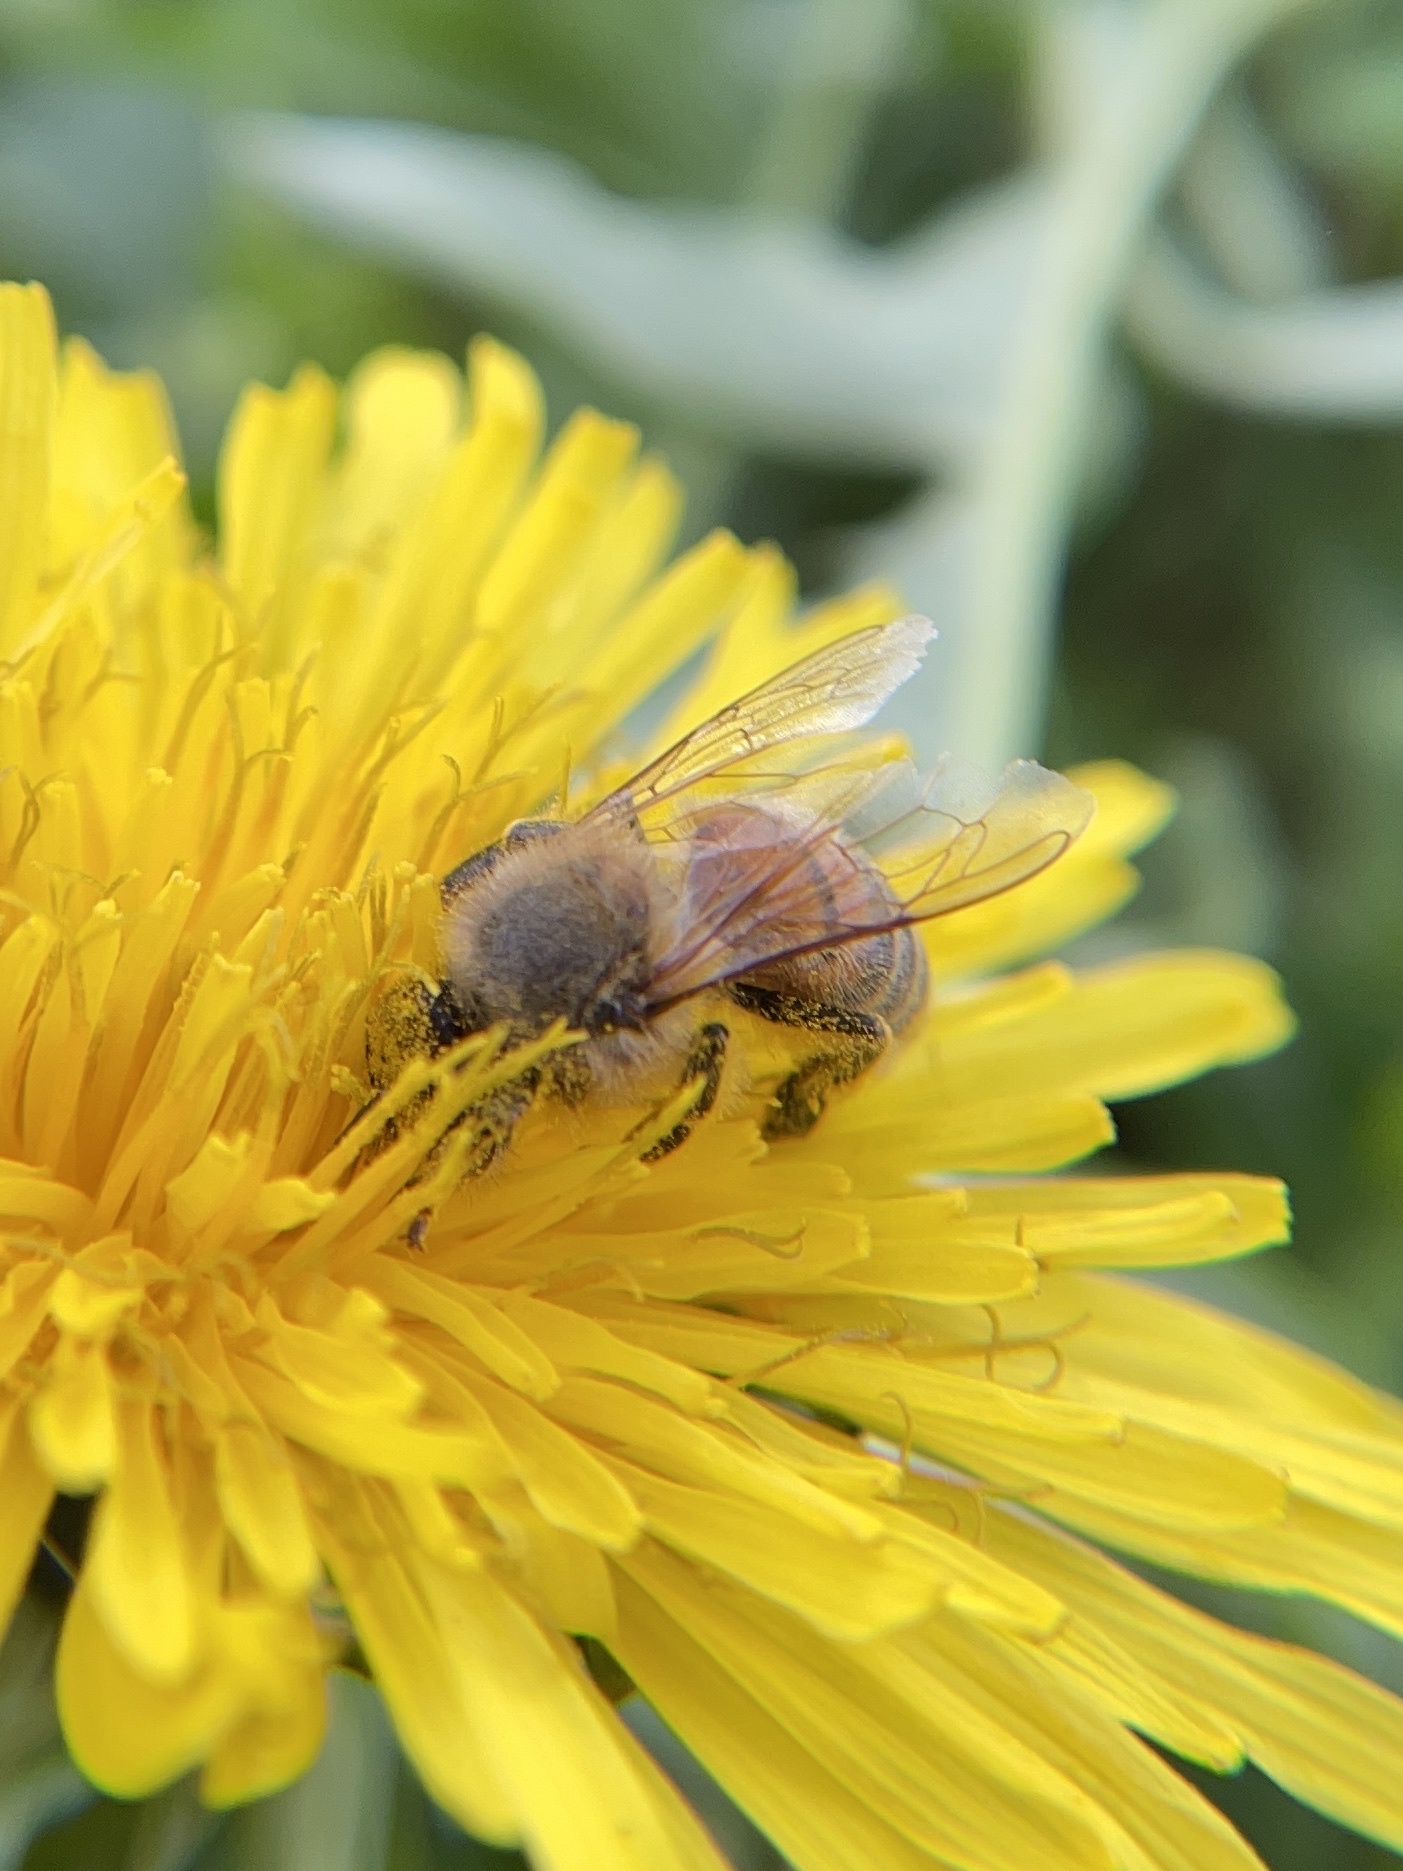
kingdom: Animalia
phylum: Arthropoda
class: Insecta
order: Hymenoptera
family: Apidae
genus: Apis
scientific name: Apis mellifera
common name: Honey bee
